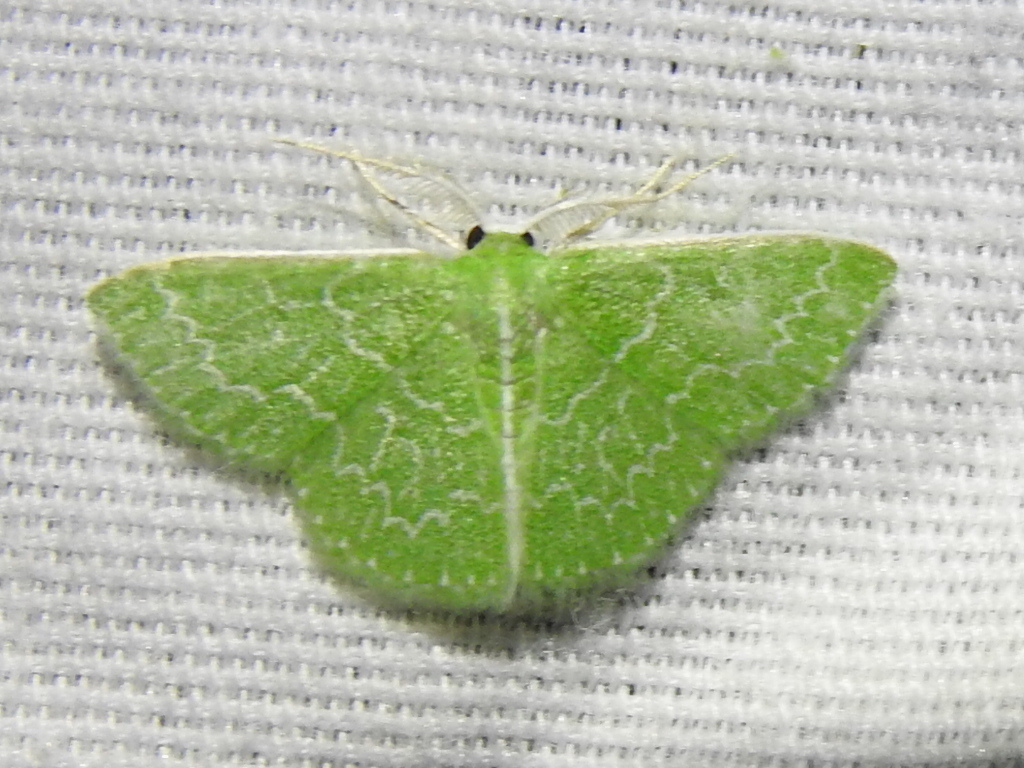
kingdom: Animalia
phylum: Arthropoda
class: Insecta
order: Lepidoptera
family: Geometridae
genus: Synchlora
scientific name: Synchlora frondaria
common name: Southern emerald
